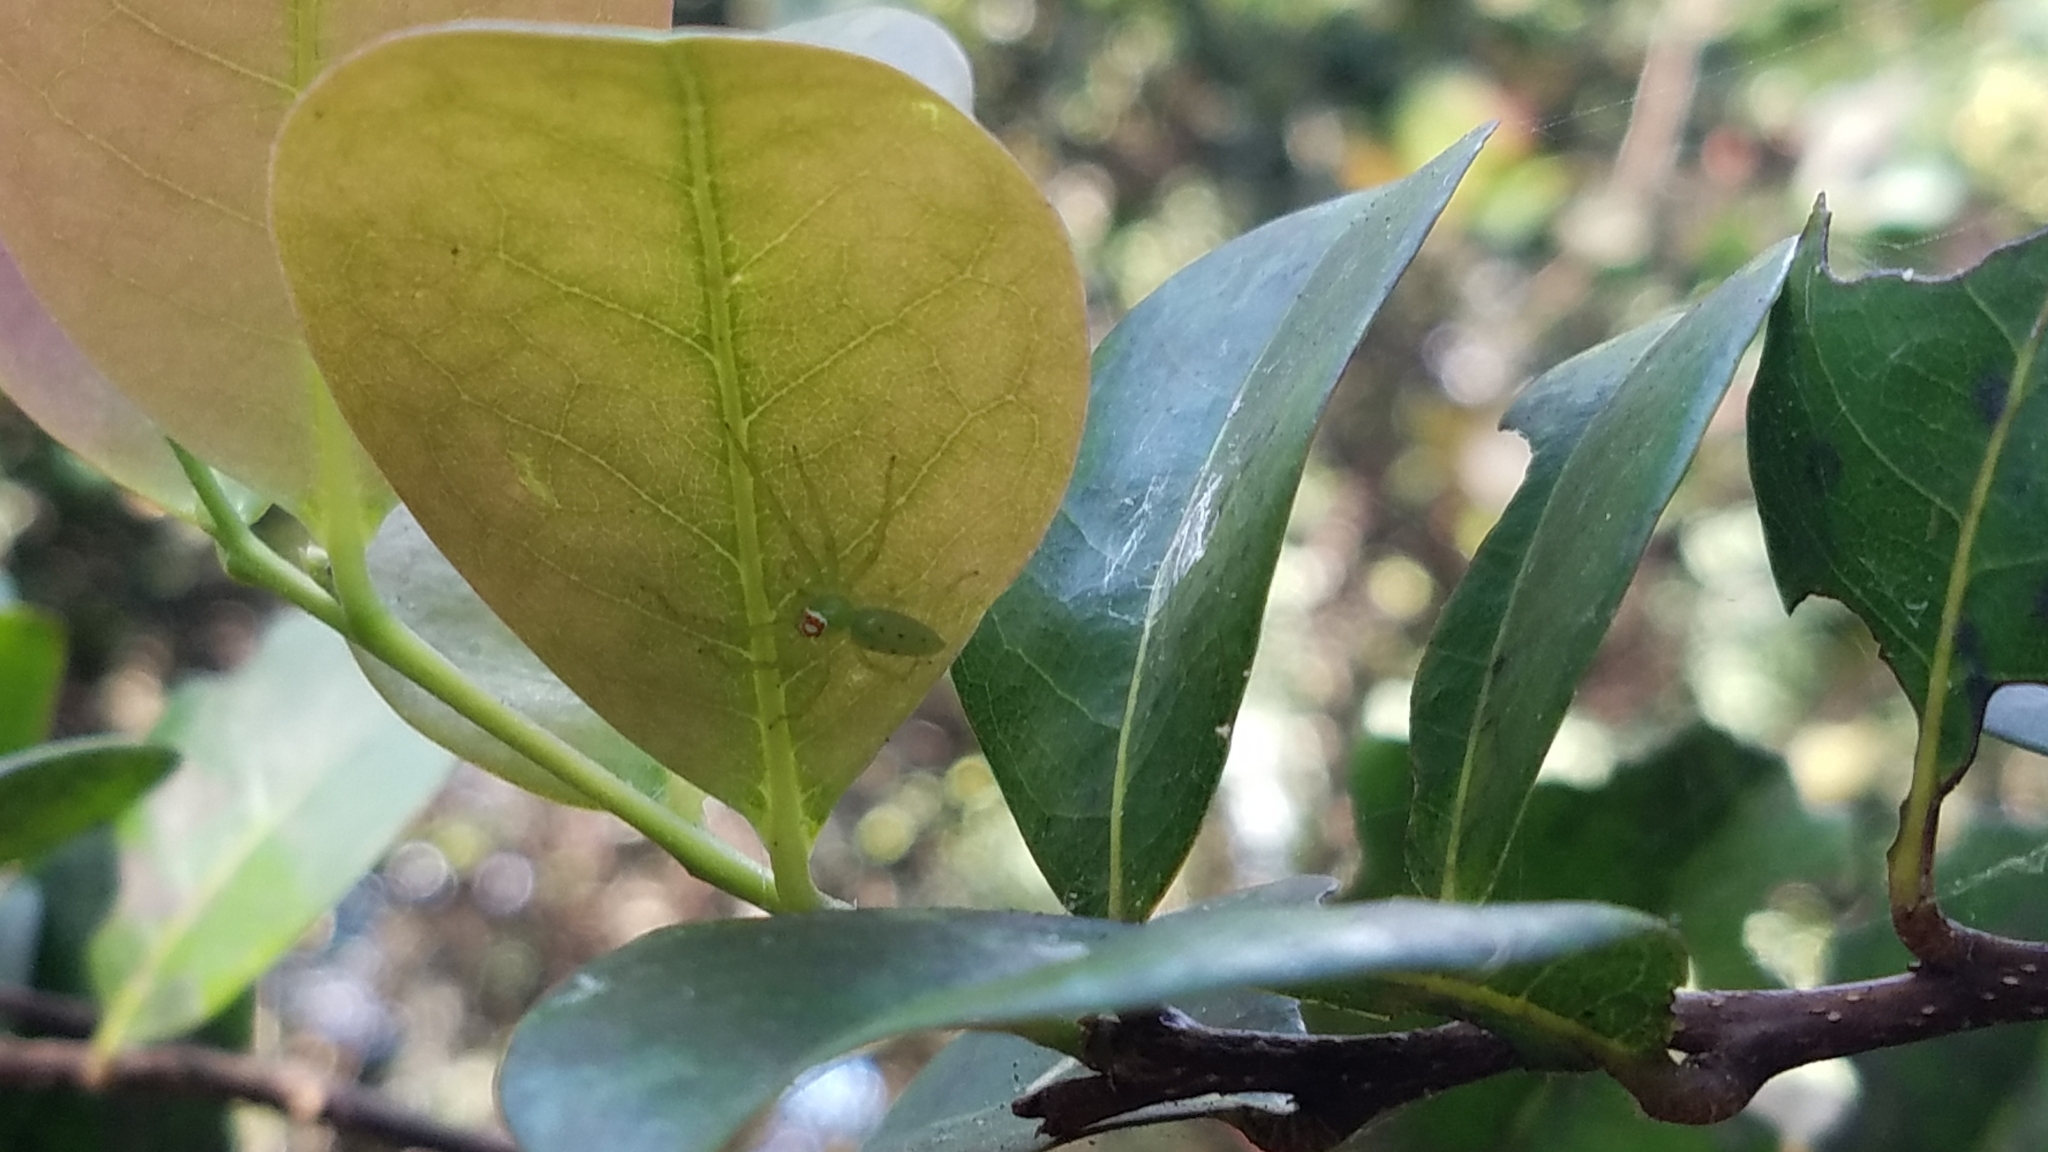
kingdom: Animalia
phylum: Arthropoda
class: Arachnida
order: Araneae
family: Salticidae
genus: Lyssomanes
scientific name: Lyssomanes viridis
